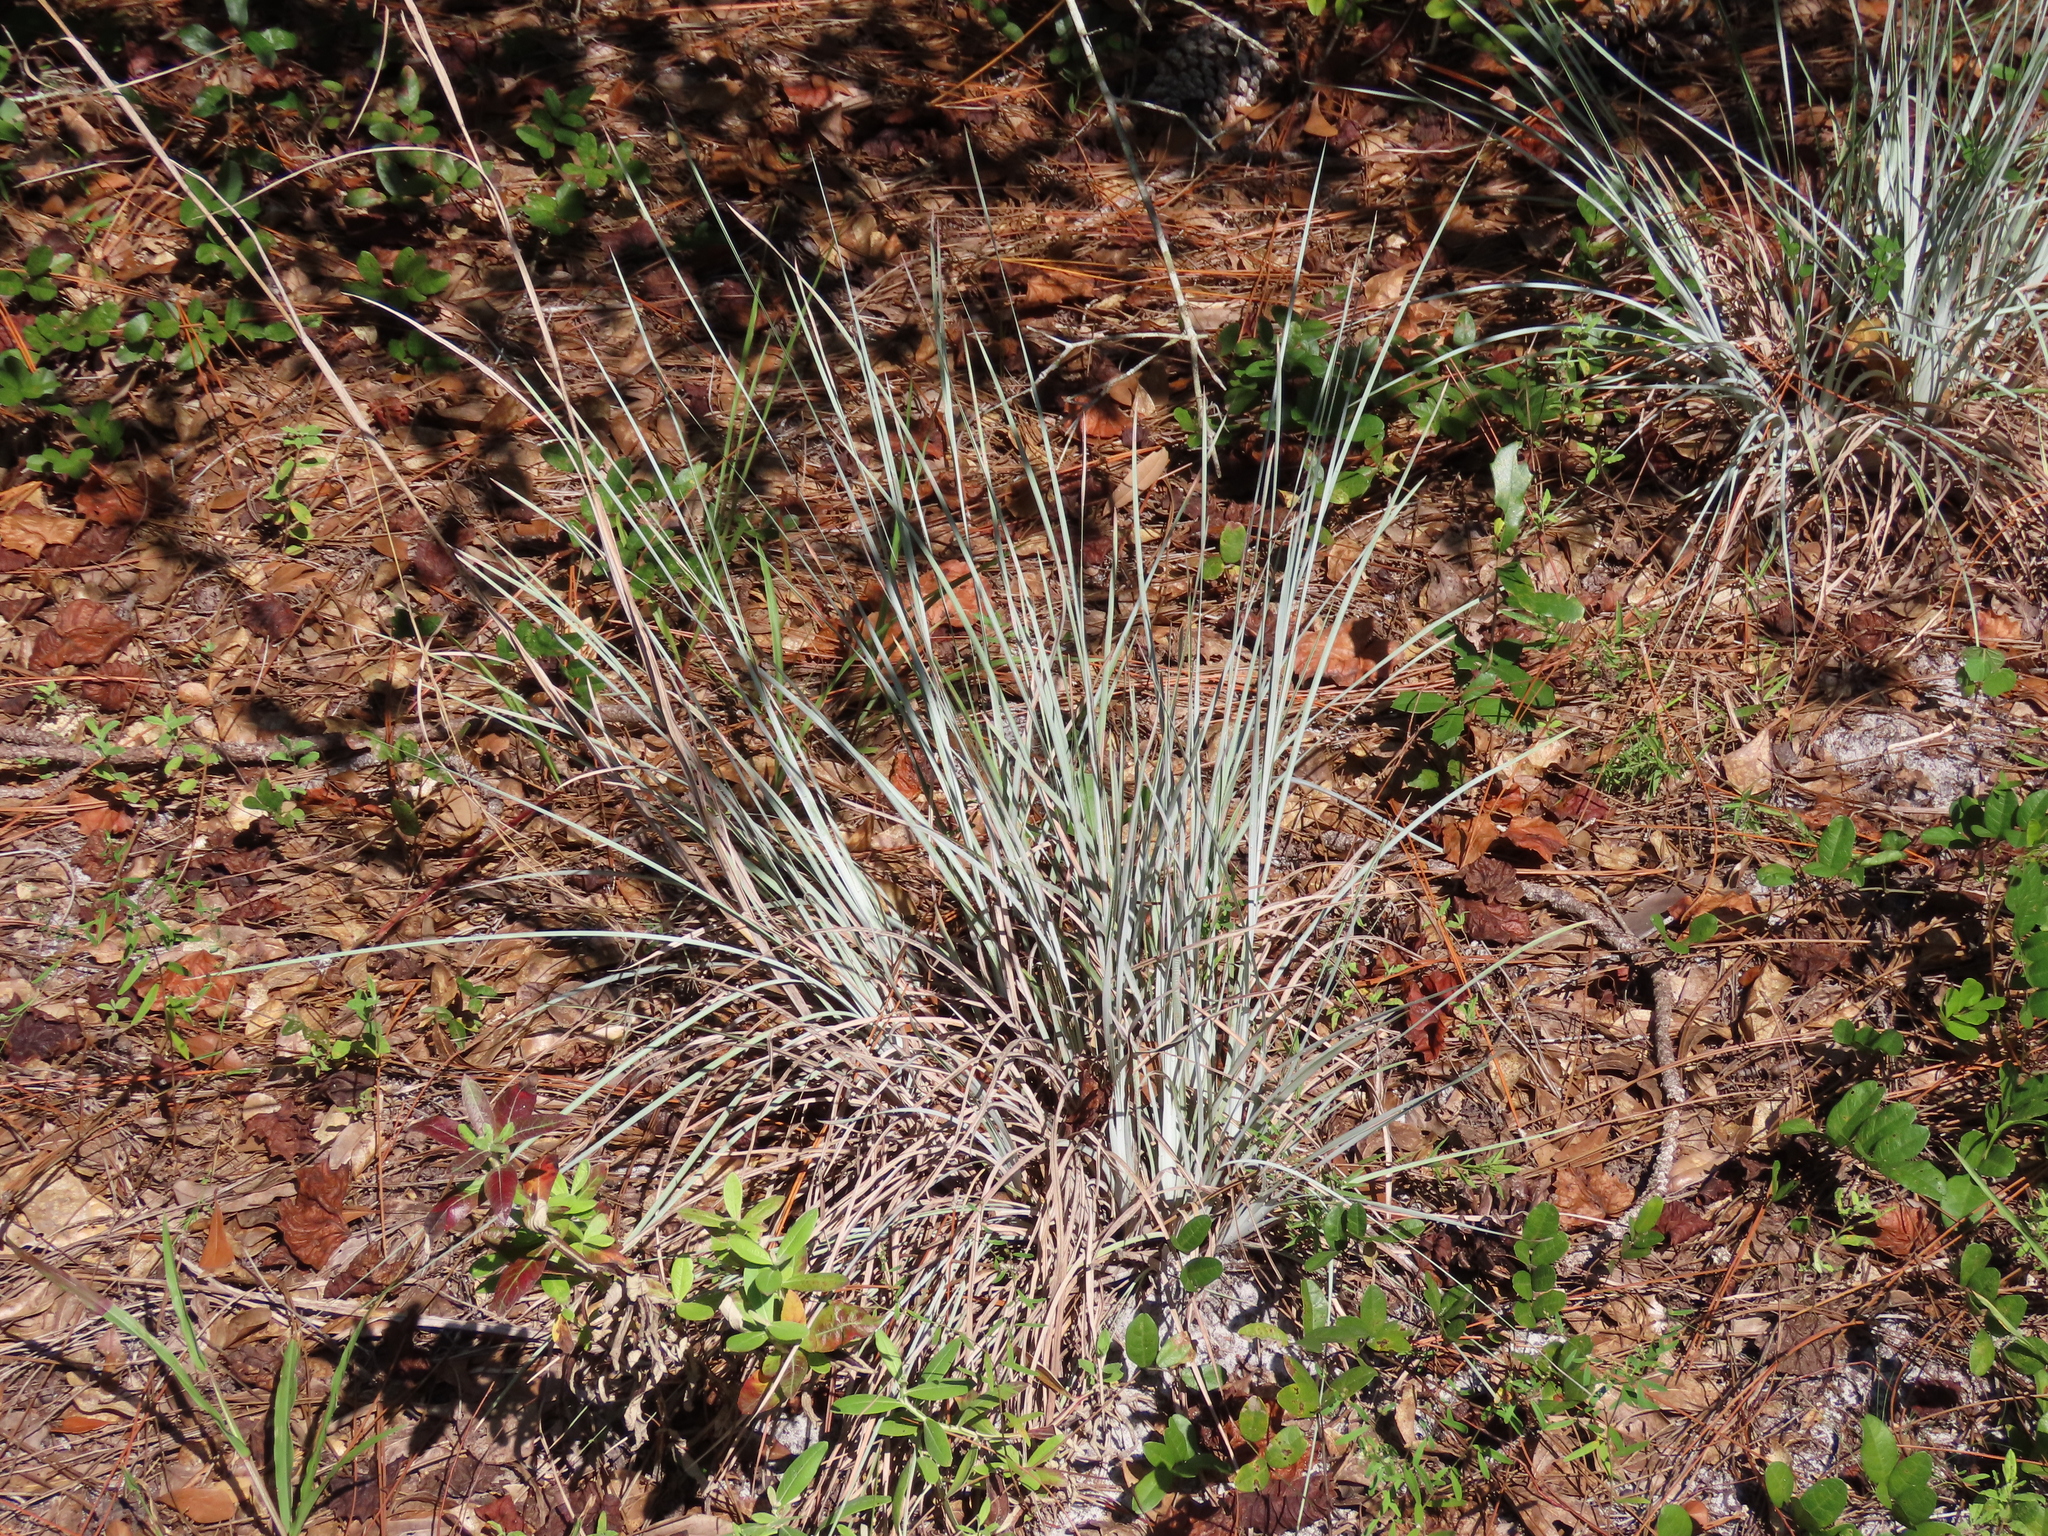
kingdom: Plantae
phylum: Tracheophyta
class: Liliopsida
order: Poales
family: Poaceae
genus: Andropogon
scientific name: Andropogon capillipes
